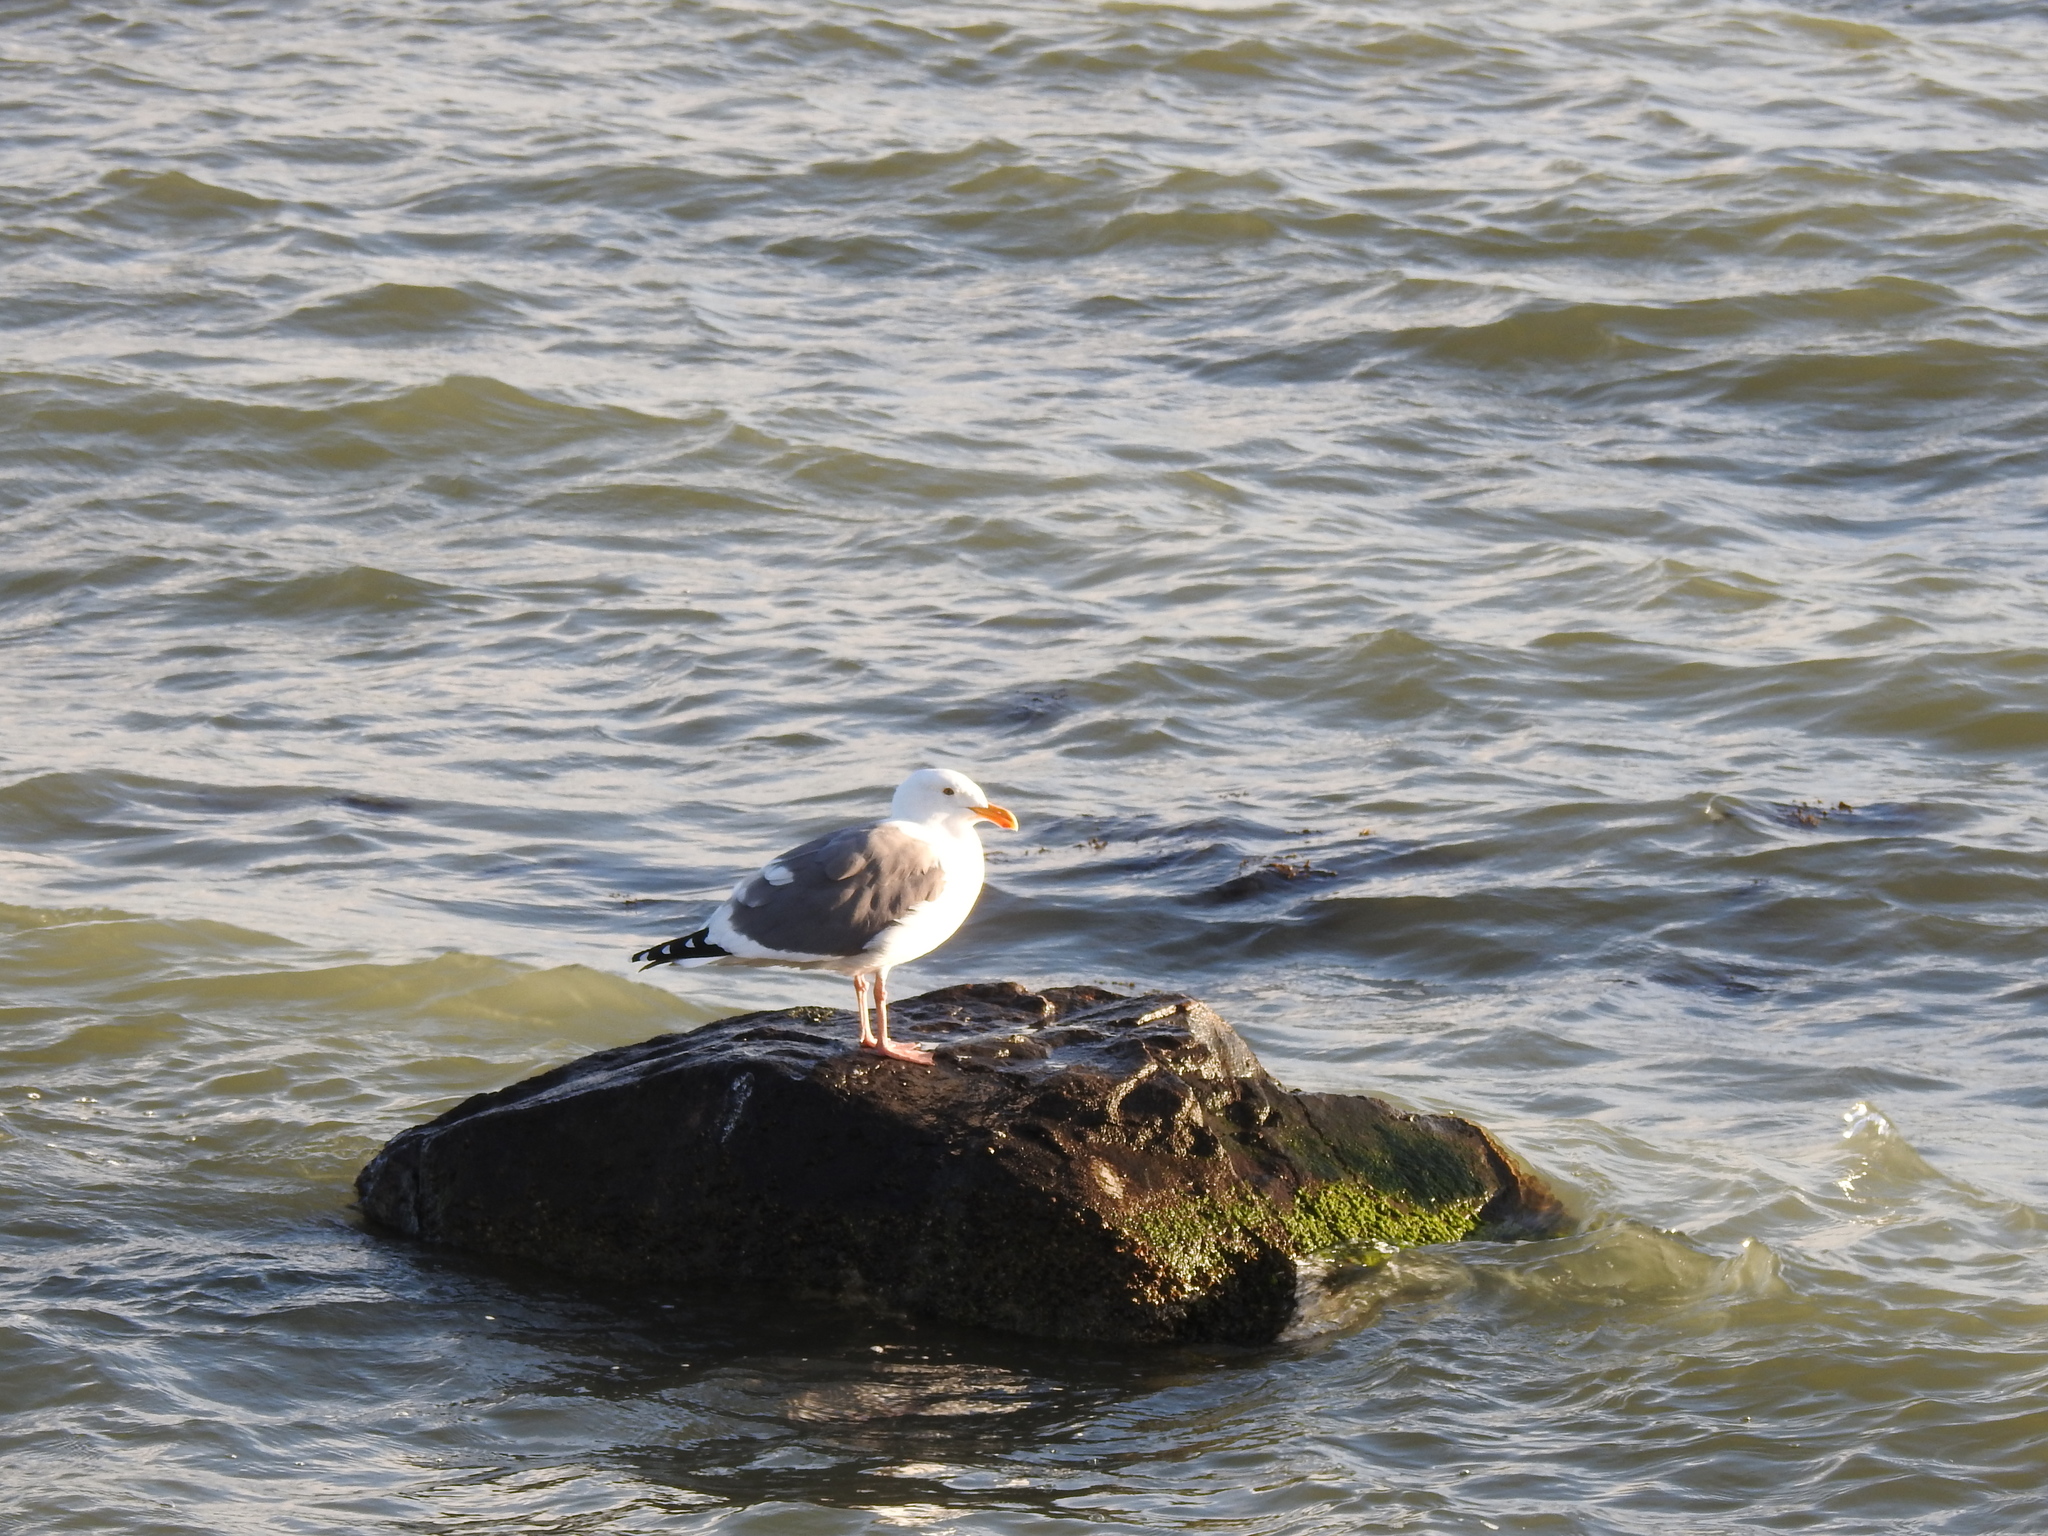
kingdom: Animalia
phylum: Chordata
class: Aves
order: Charadriiformes
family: Laridae
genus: Larus
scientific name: Larus occidentalis
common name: Western gull
